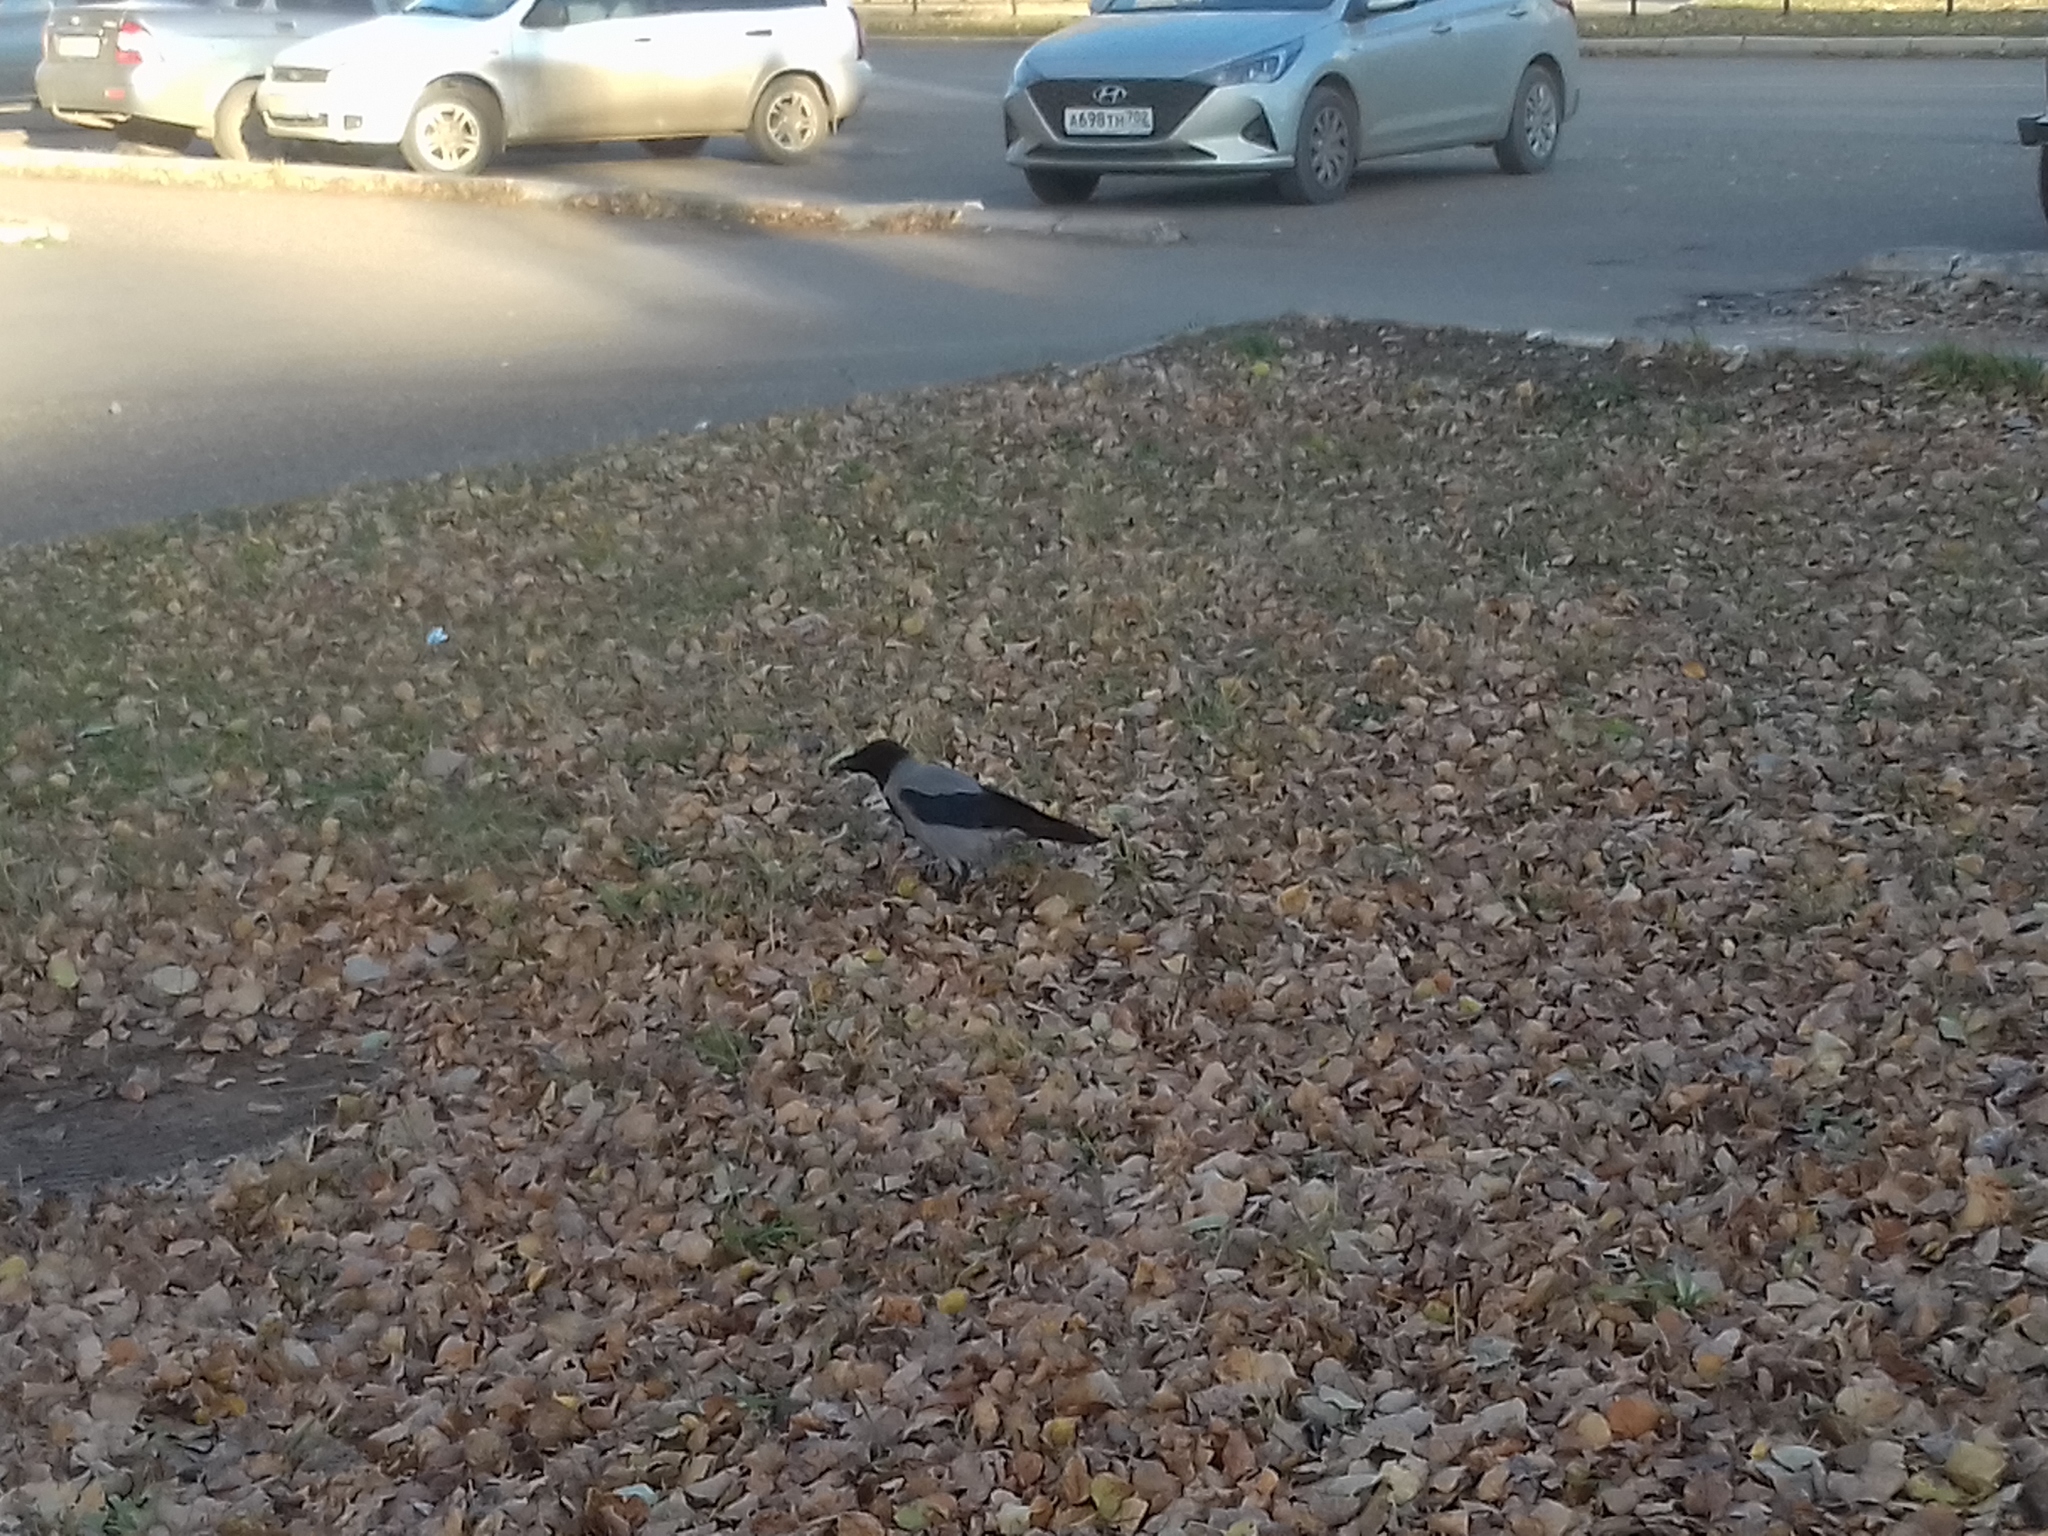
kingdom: Animalia
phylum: Chordata
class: Aves
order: Passeriformes
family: Corvidae
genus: Corvus
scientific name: Corvus cornix
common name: Hooded crow
